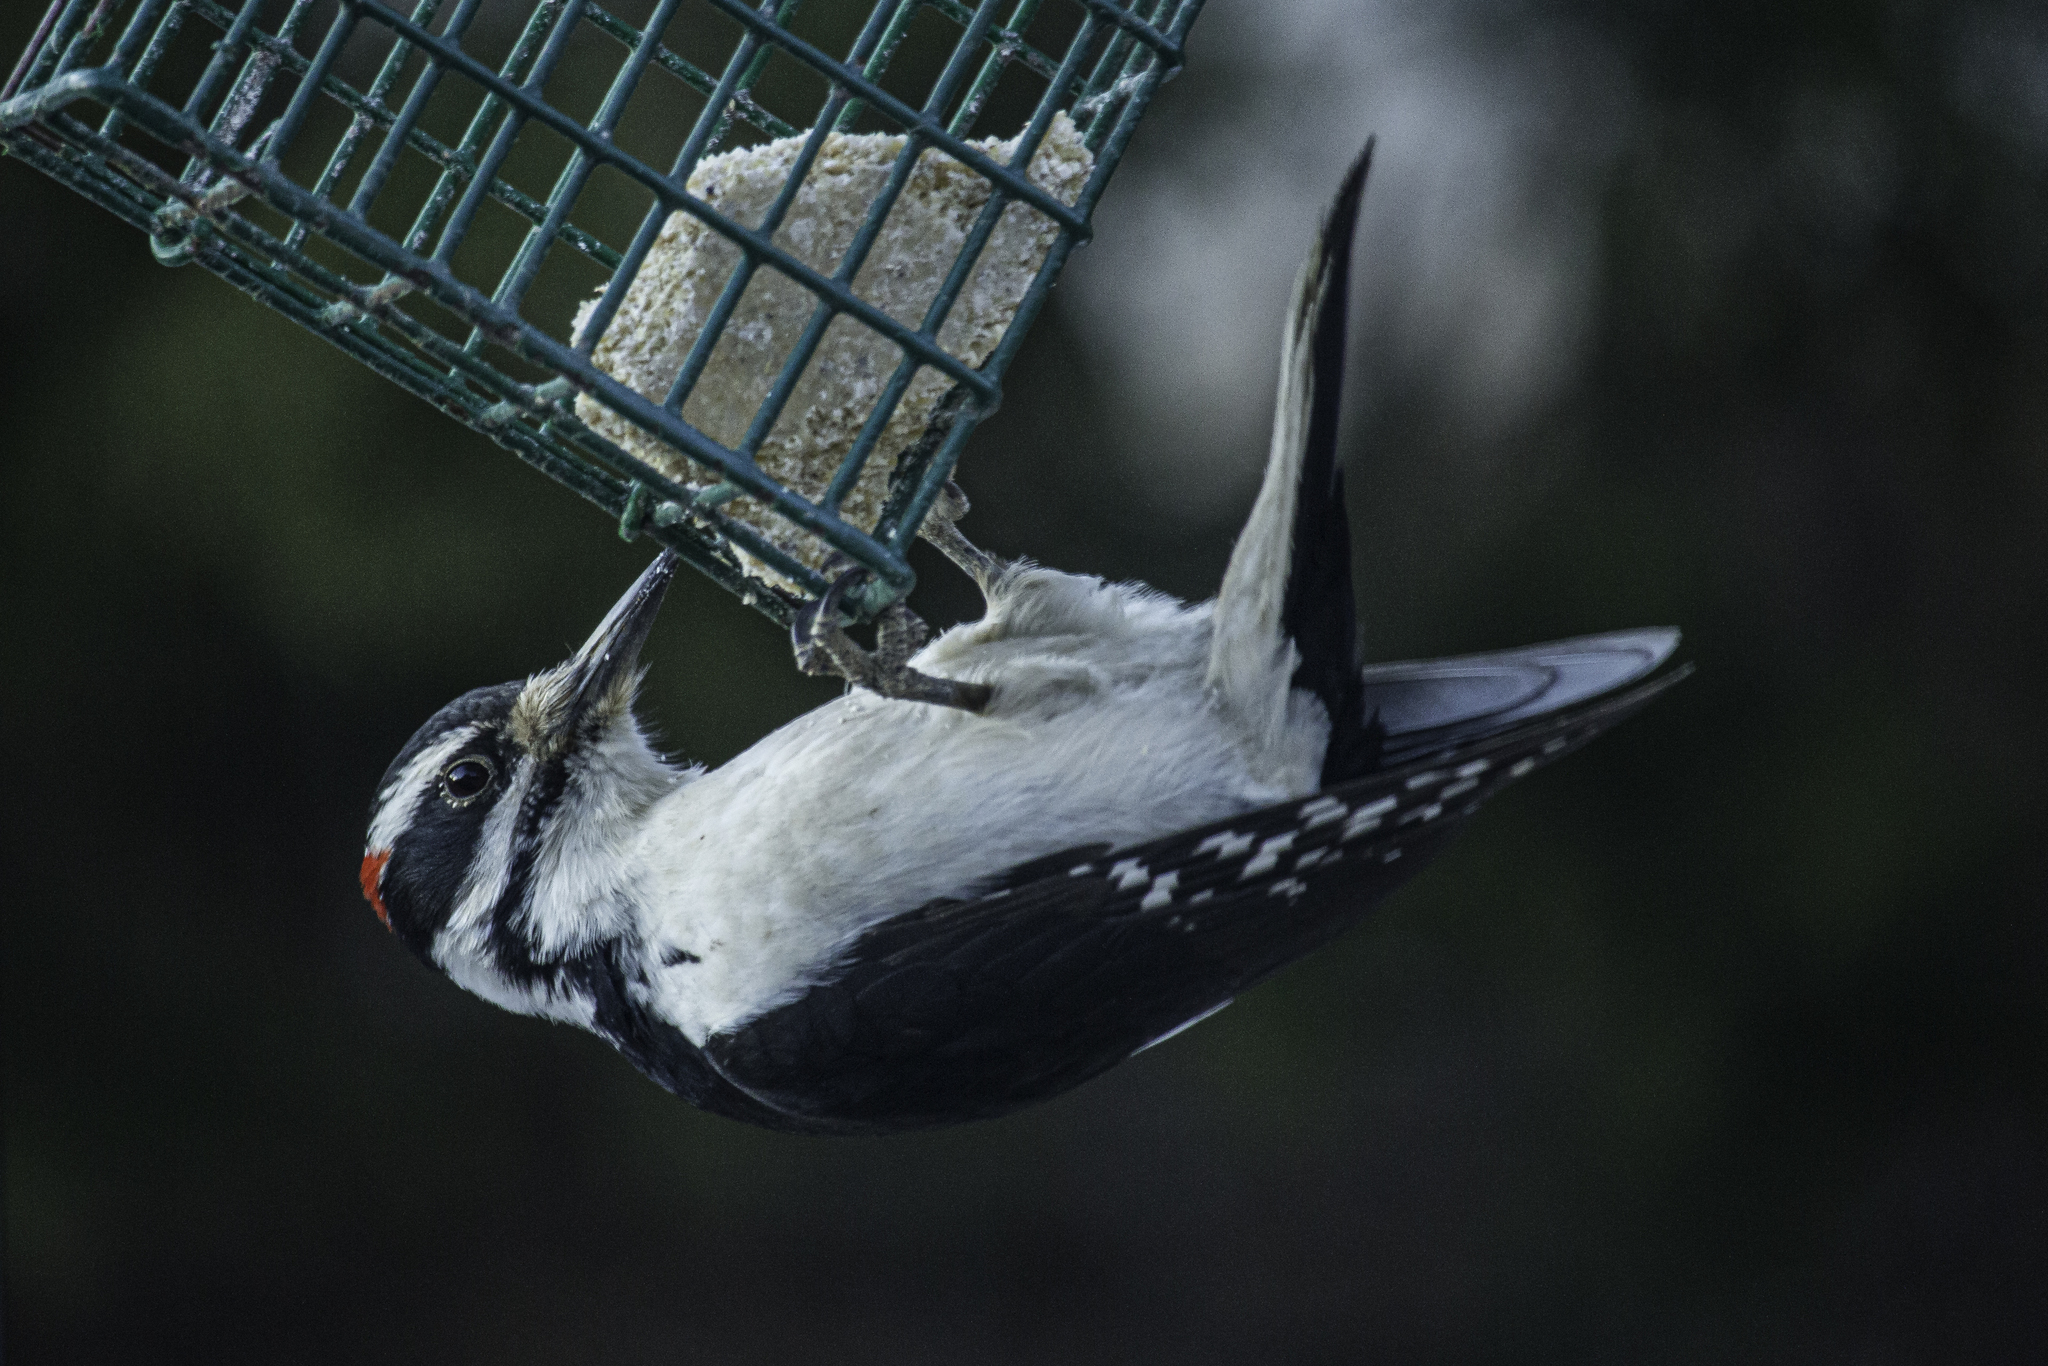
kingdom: Animalia
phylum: Chordata
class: Aves
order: Piciformes
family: Picidae
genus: Leuconotopicus
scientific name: Leuconotopicus villosus
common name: Hairy woodpecker
